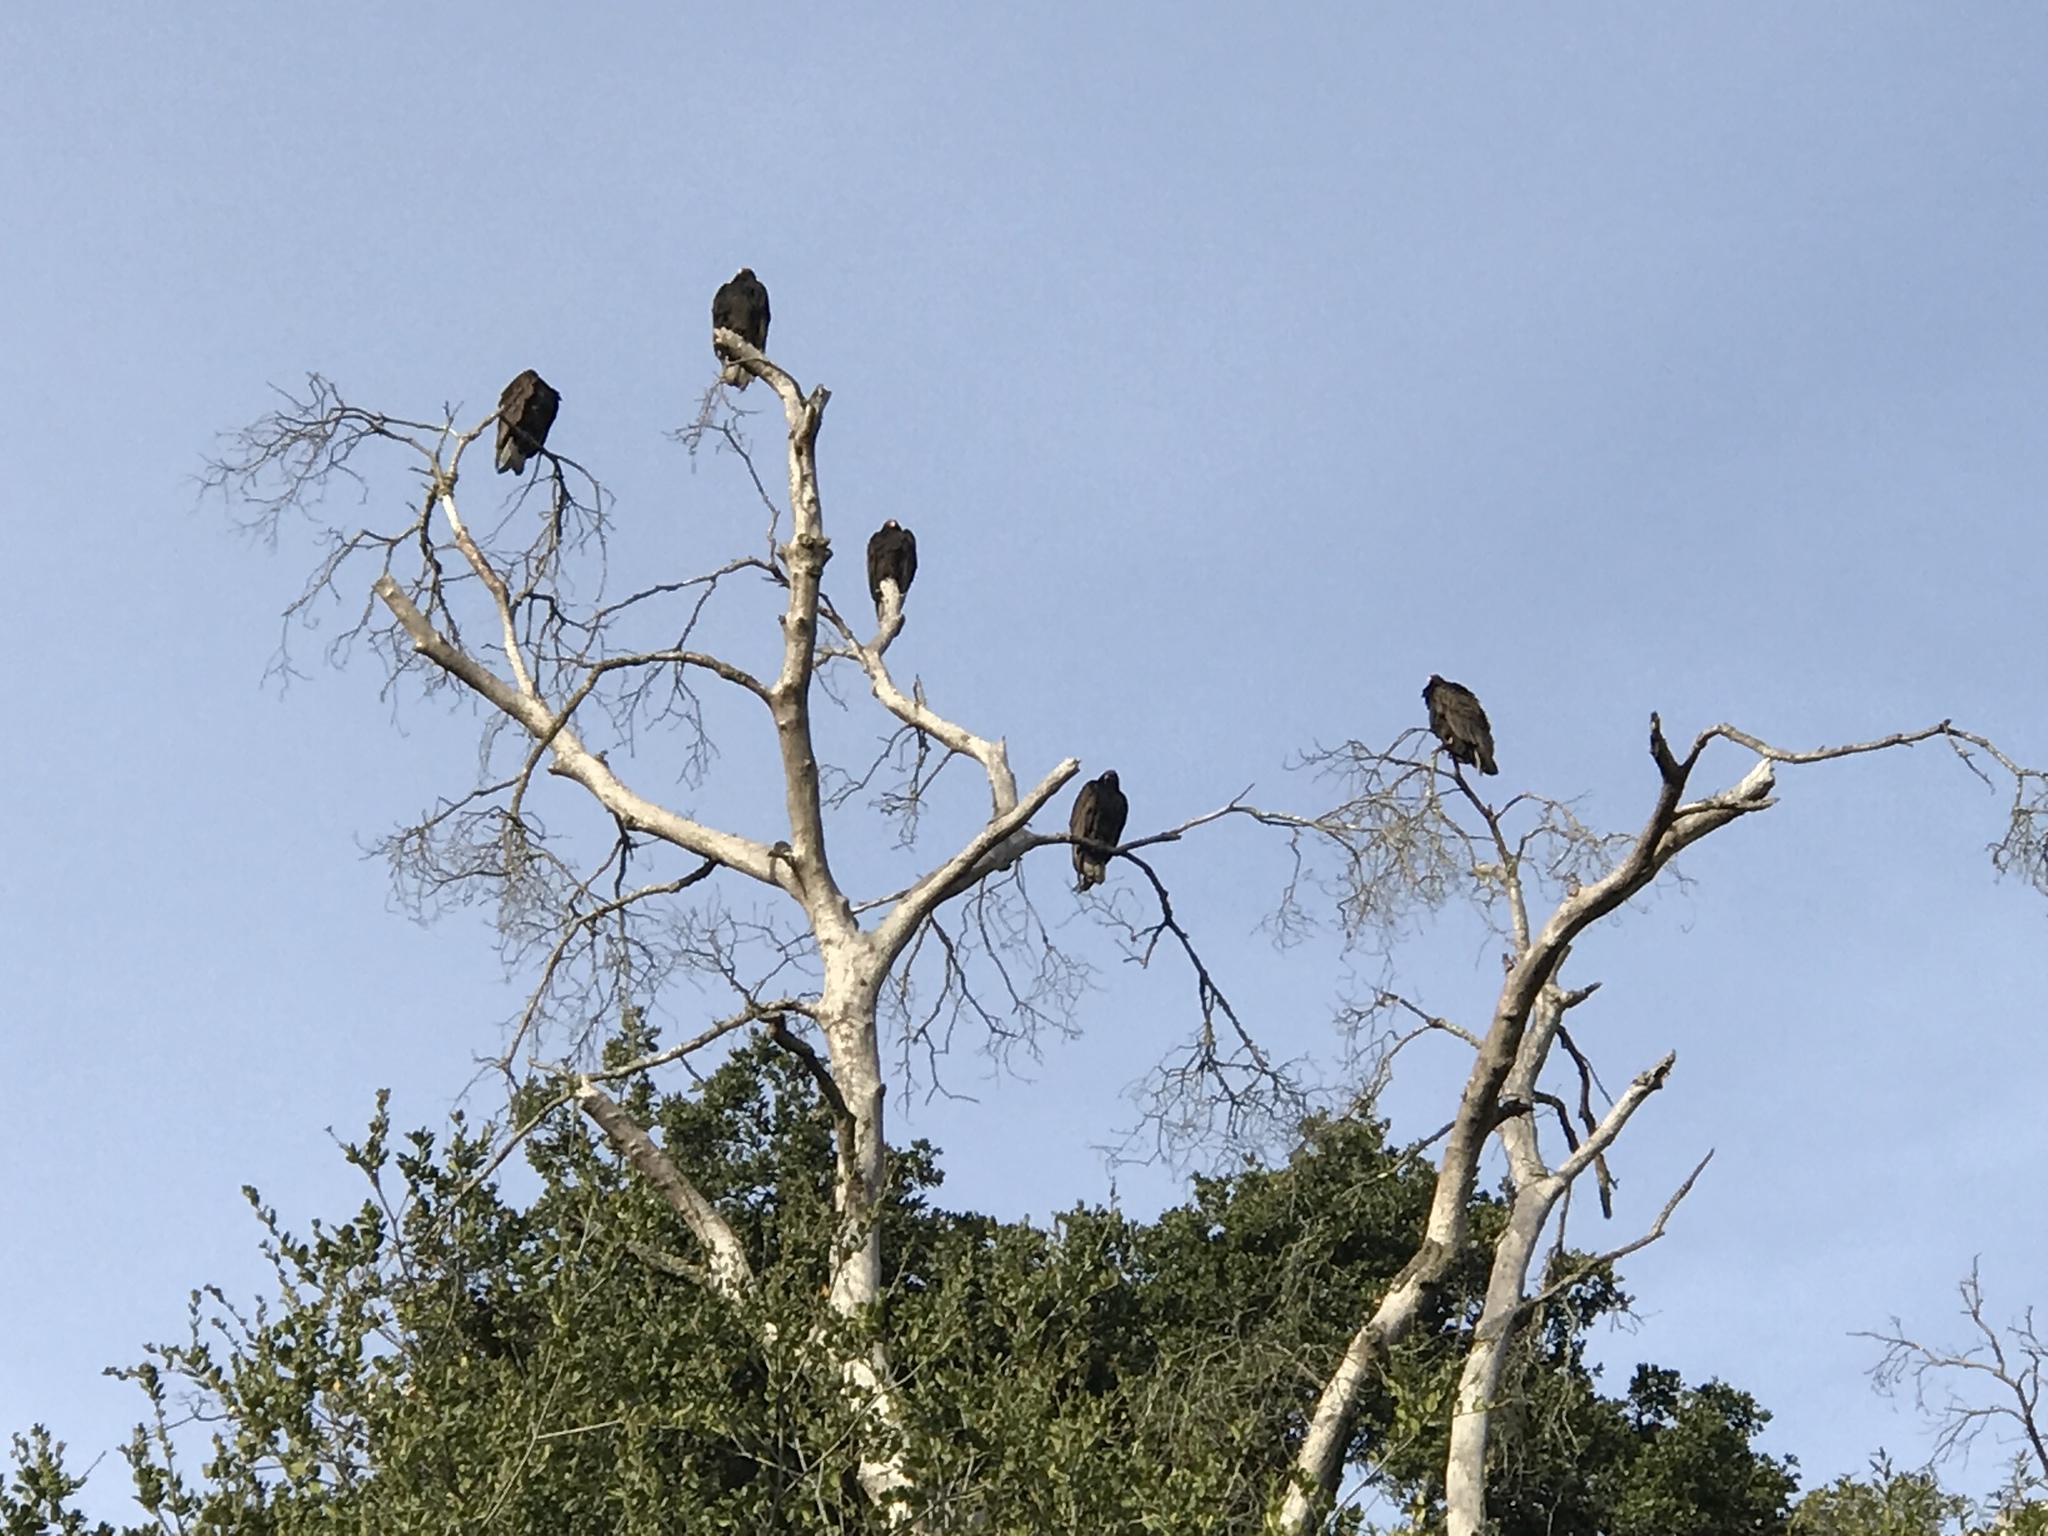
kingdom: Animalia
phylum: Chordata
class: Aves
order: Accipitriformes
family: Cathartidae
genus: Cathartes
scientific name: Cathartes aura
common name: Turkey vulture
